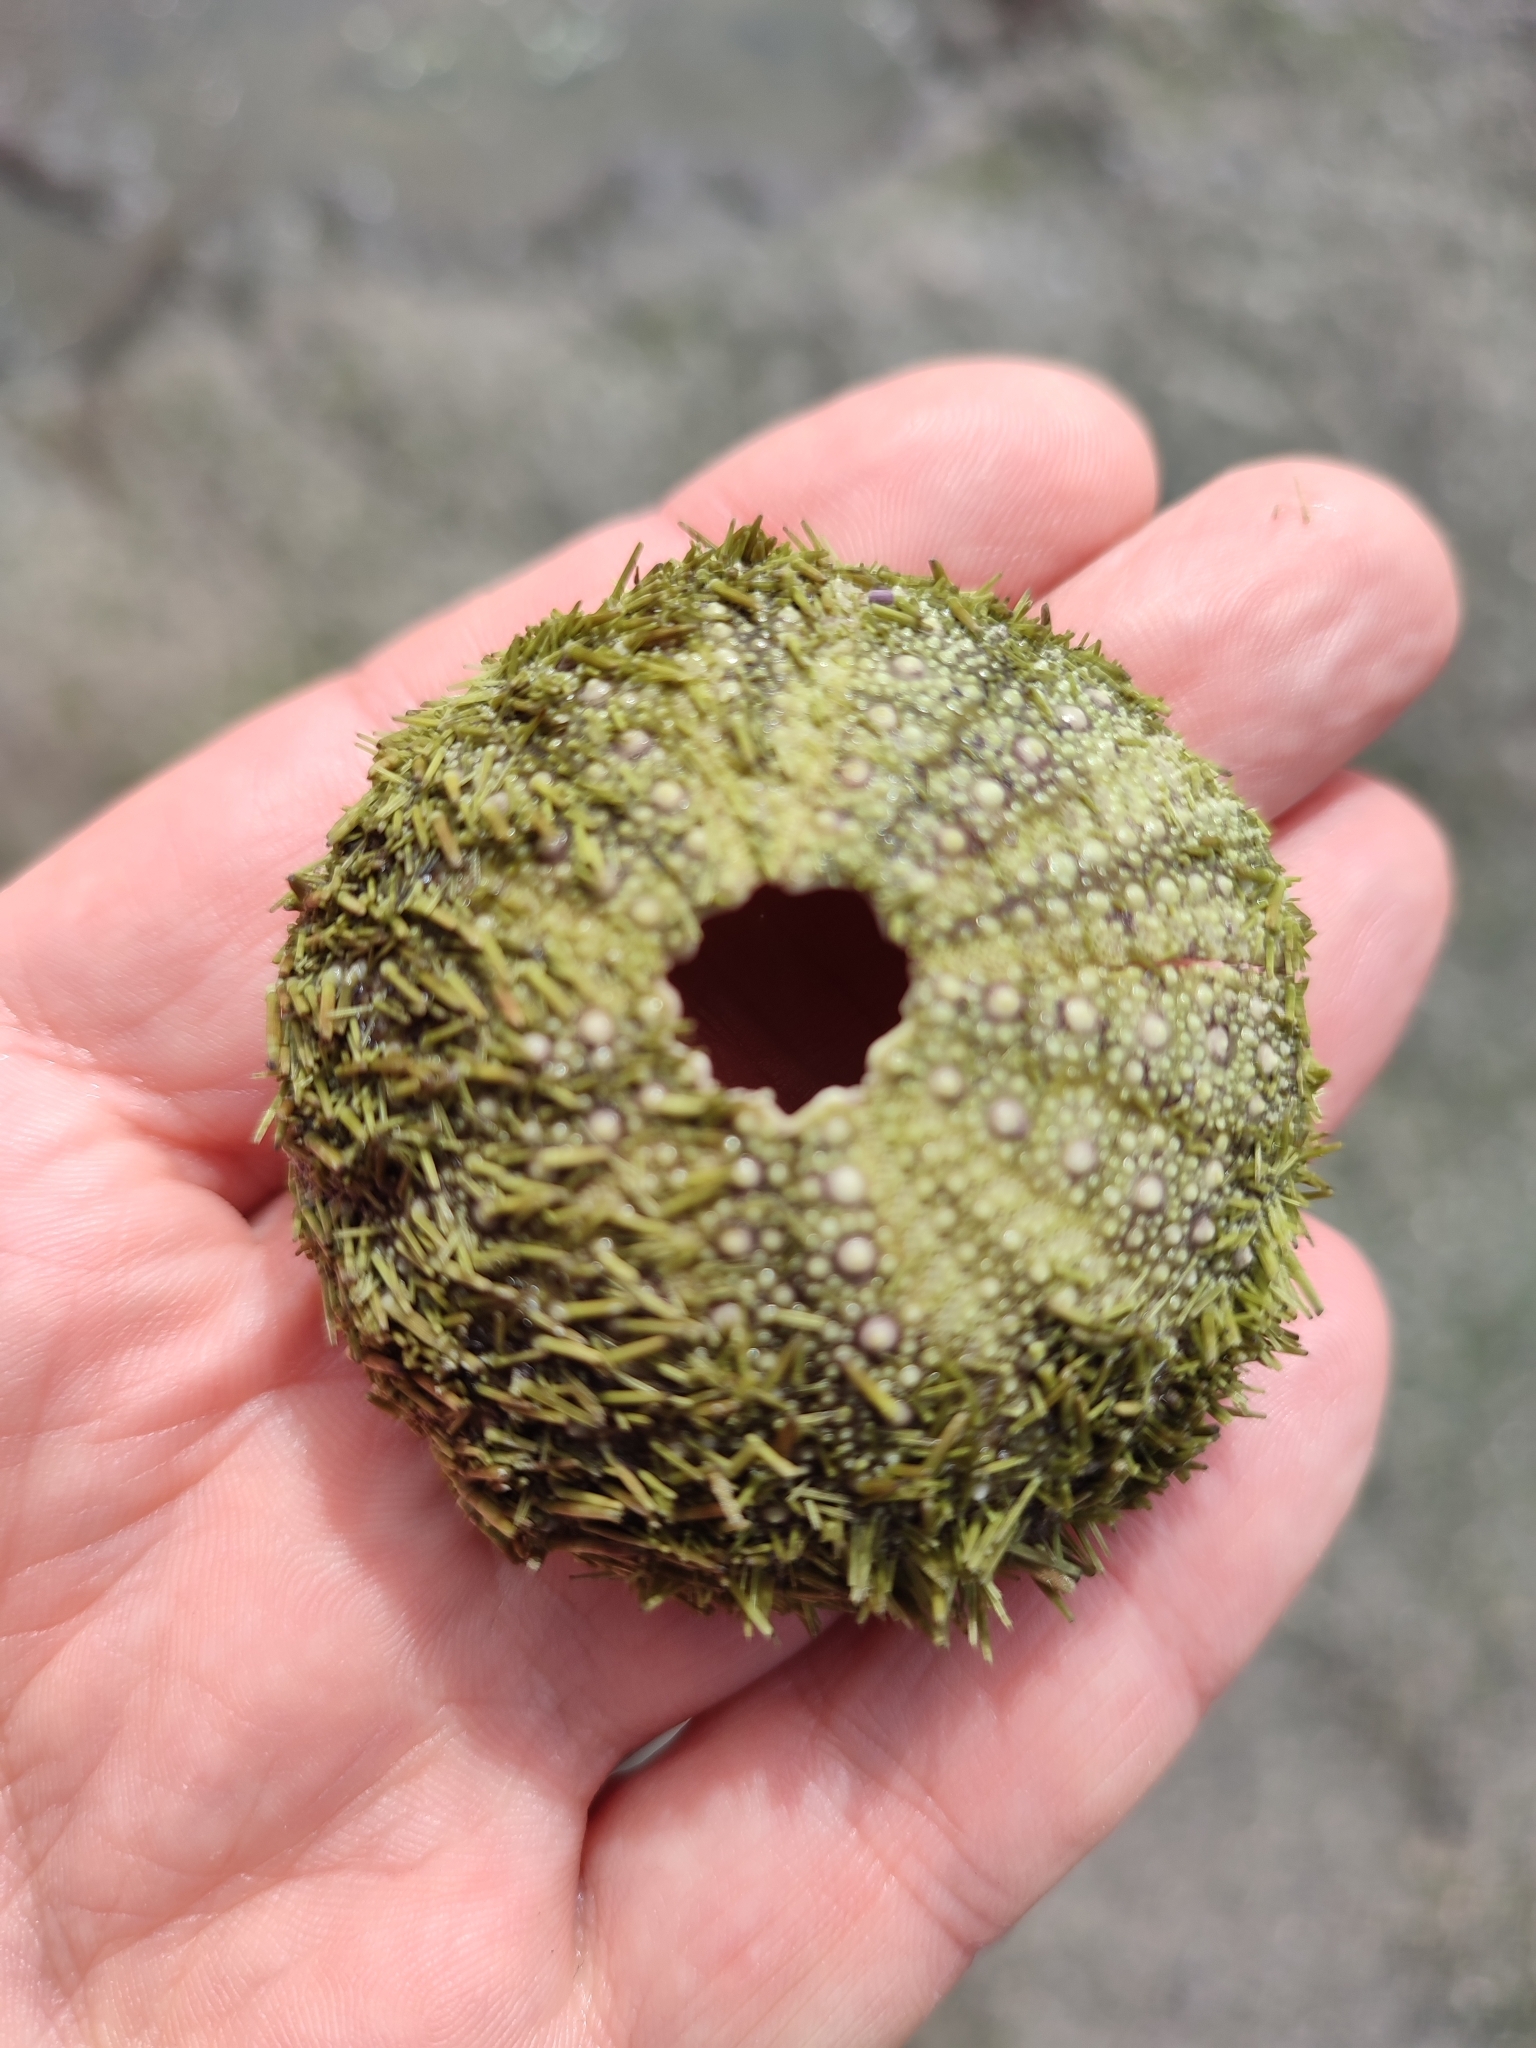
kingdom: Animalia
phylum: Echinodermata
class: Echinoidea
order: Camarodonta
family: Strongylocentrotidae
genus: Strongylocentrotus
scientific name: Strongylocentrotus droebachiensis
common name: Northern sea urchin
